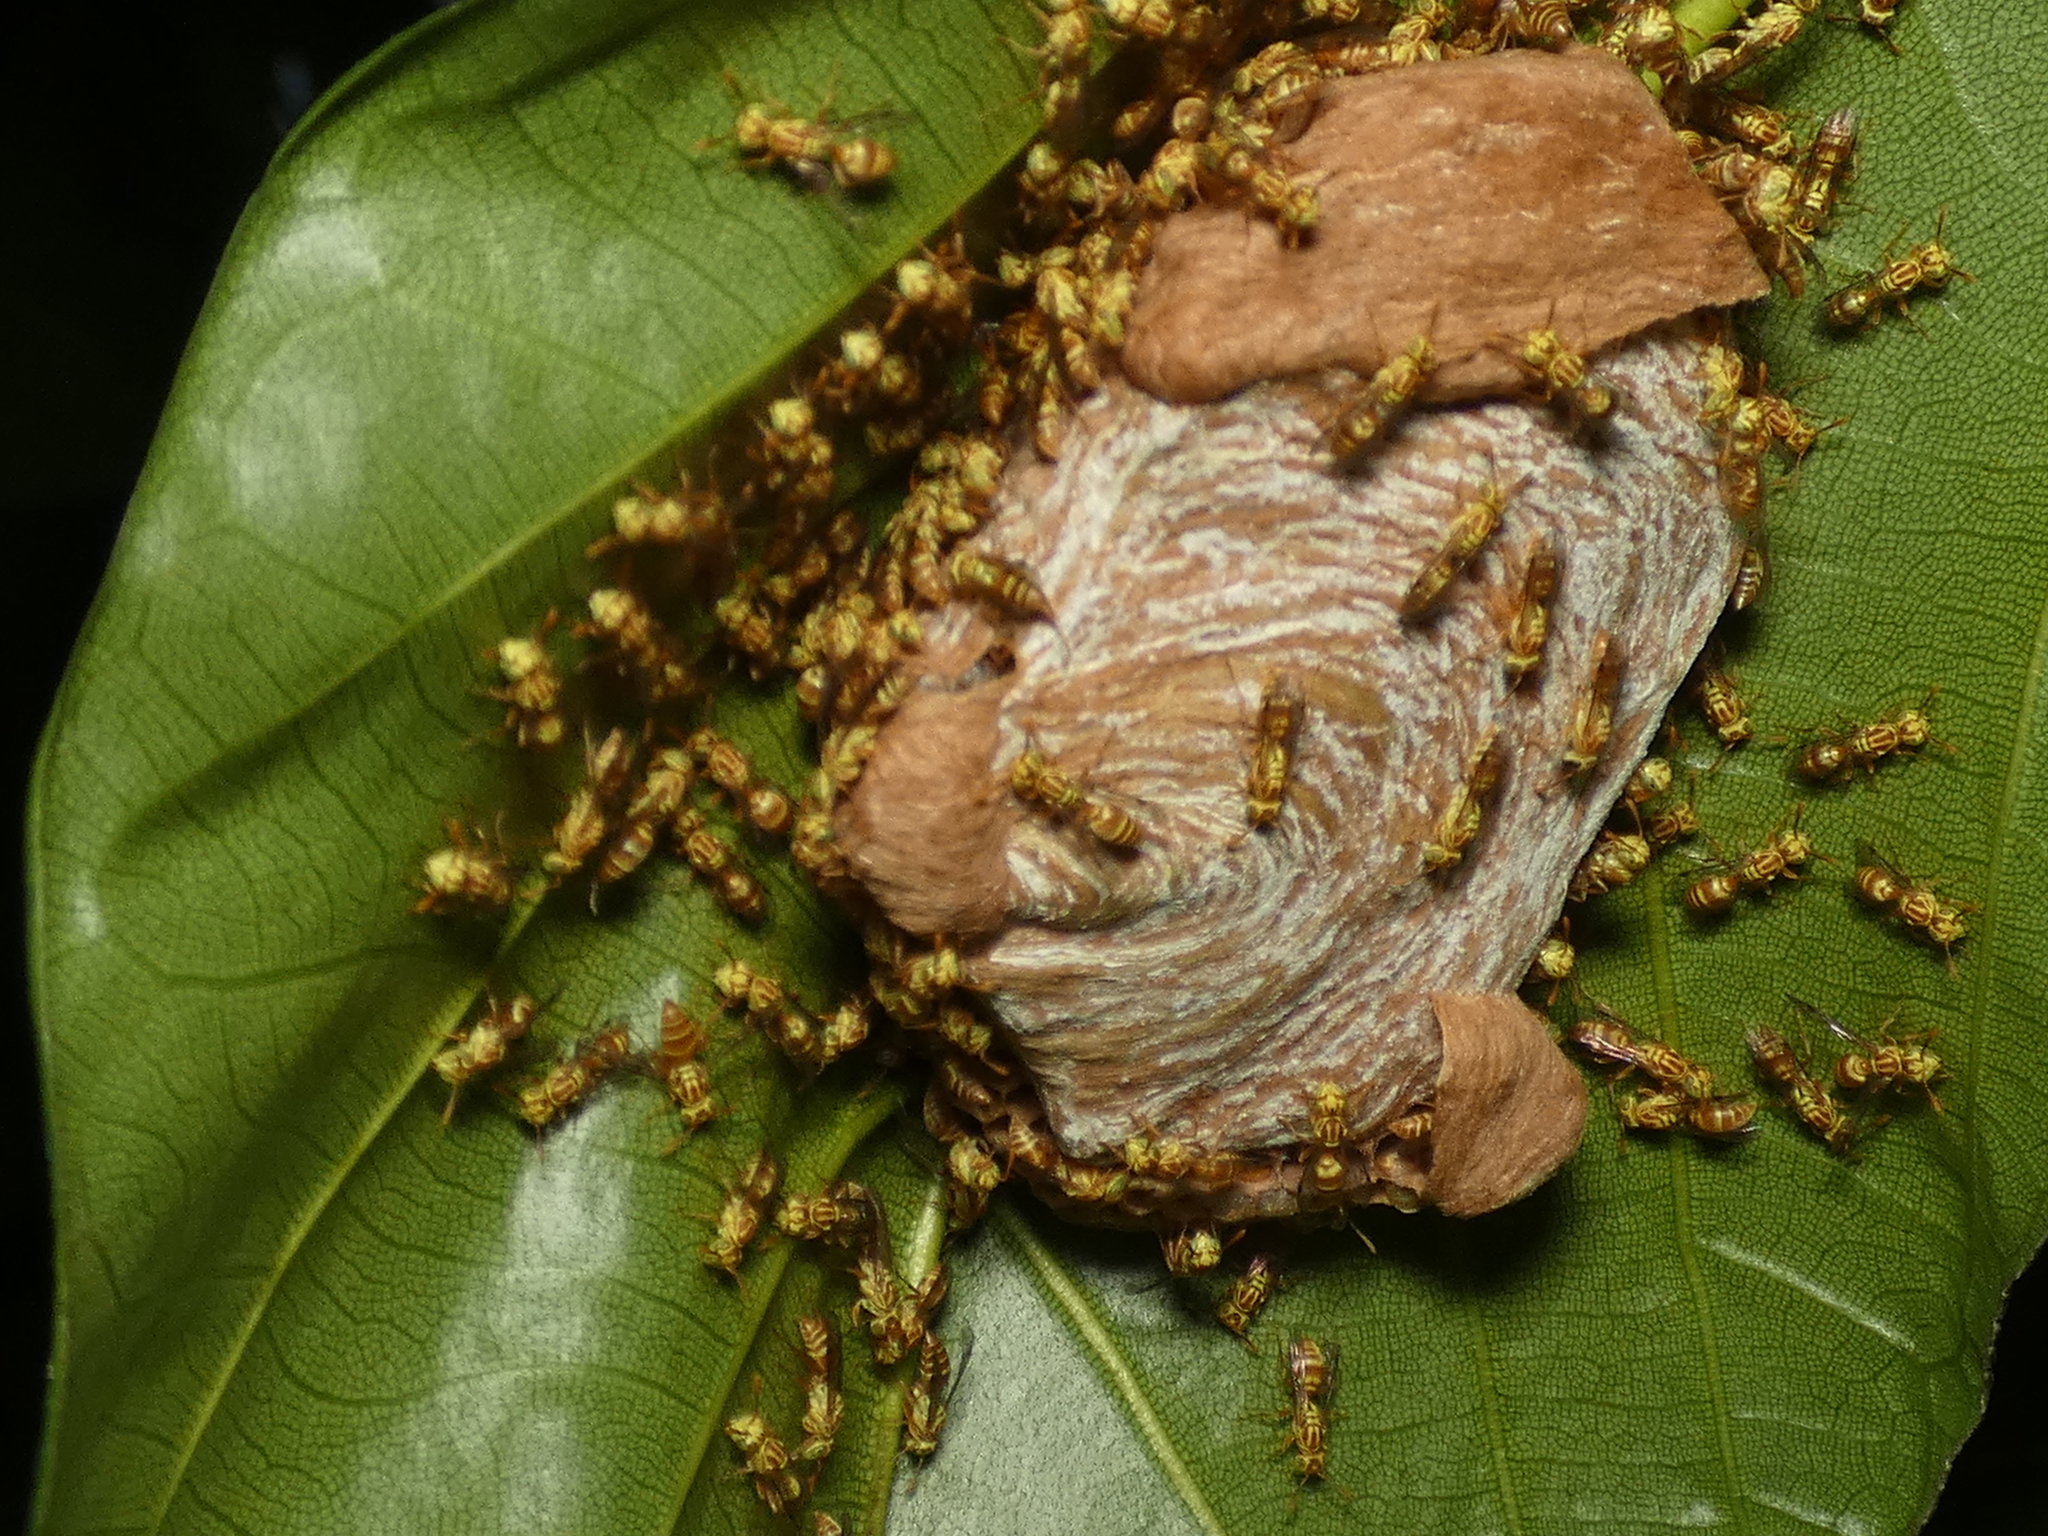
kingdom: Animalia
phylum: Arthropoda
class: Insecta
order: Hymenoptera
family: Vespidae
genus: Protopolybia
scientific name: Protopolybia potiguara
